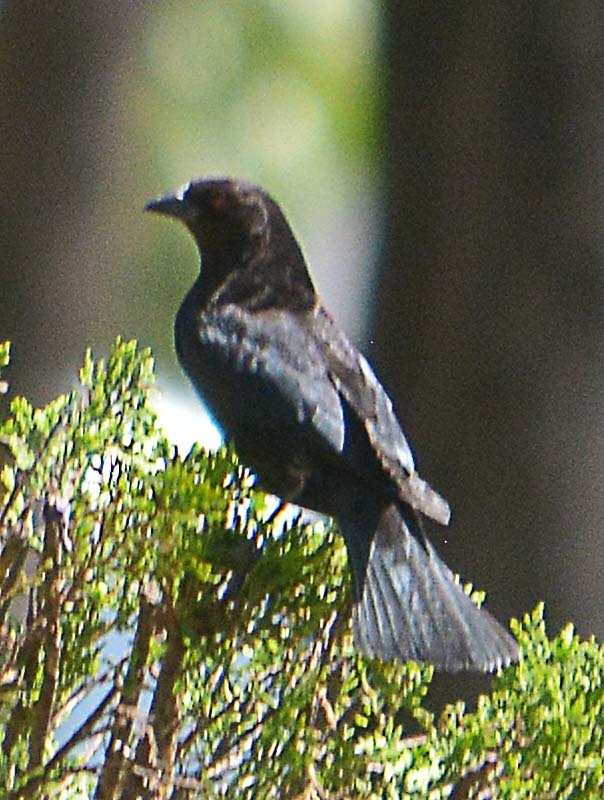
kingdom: Animalia
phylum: Chordata
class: Aves
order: Passeriformes
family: Icteridae
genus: Molothrus
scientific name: Molothrus aeneus
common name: Bronzed cowbird
